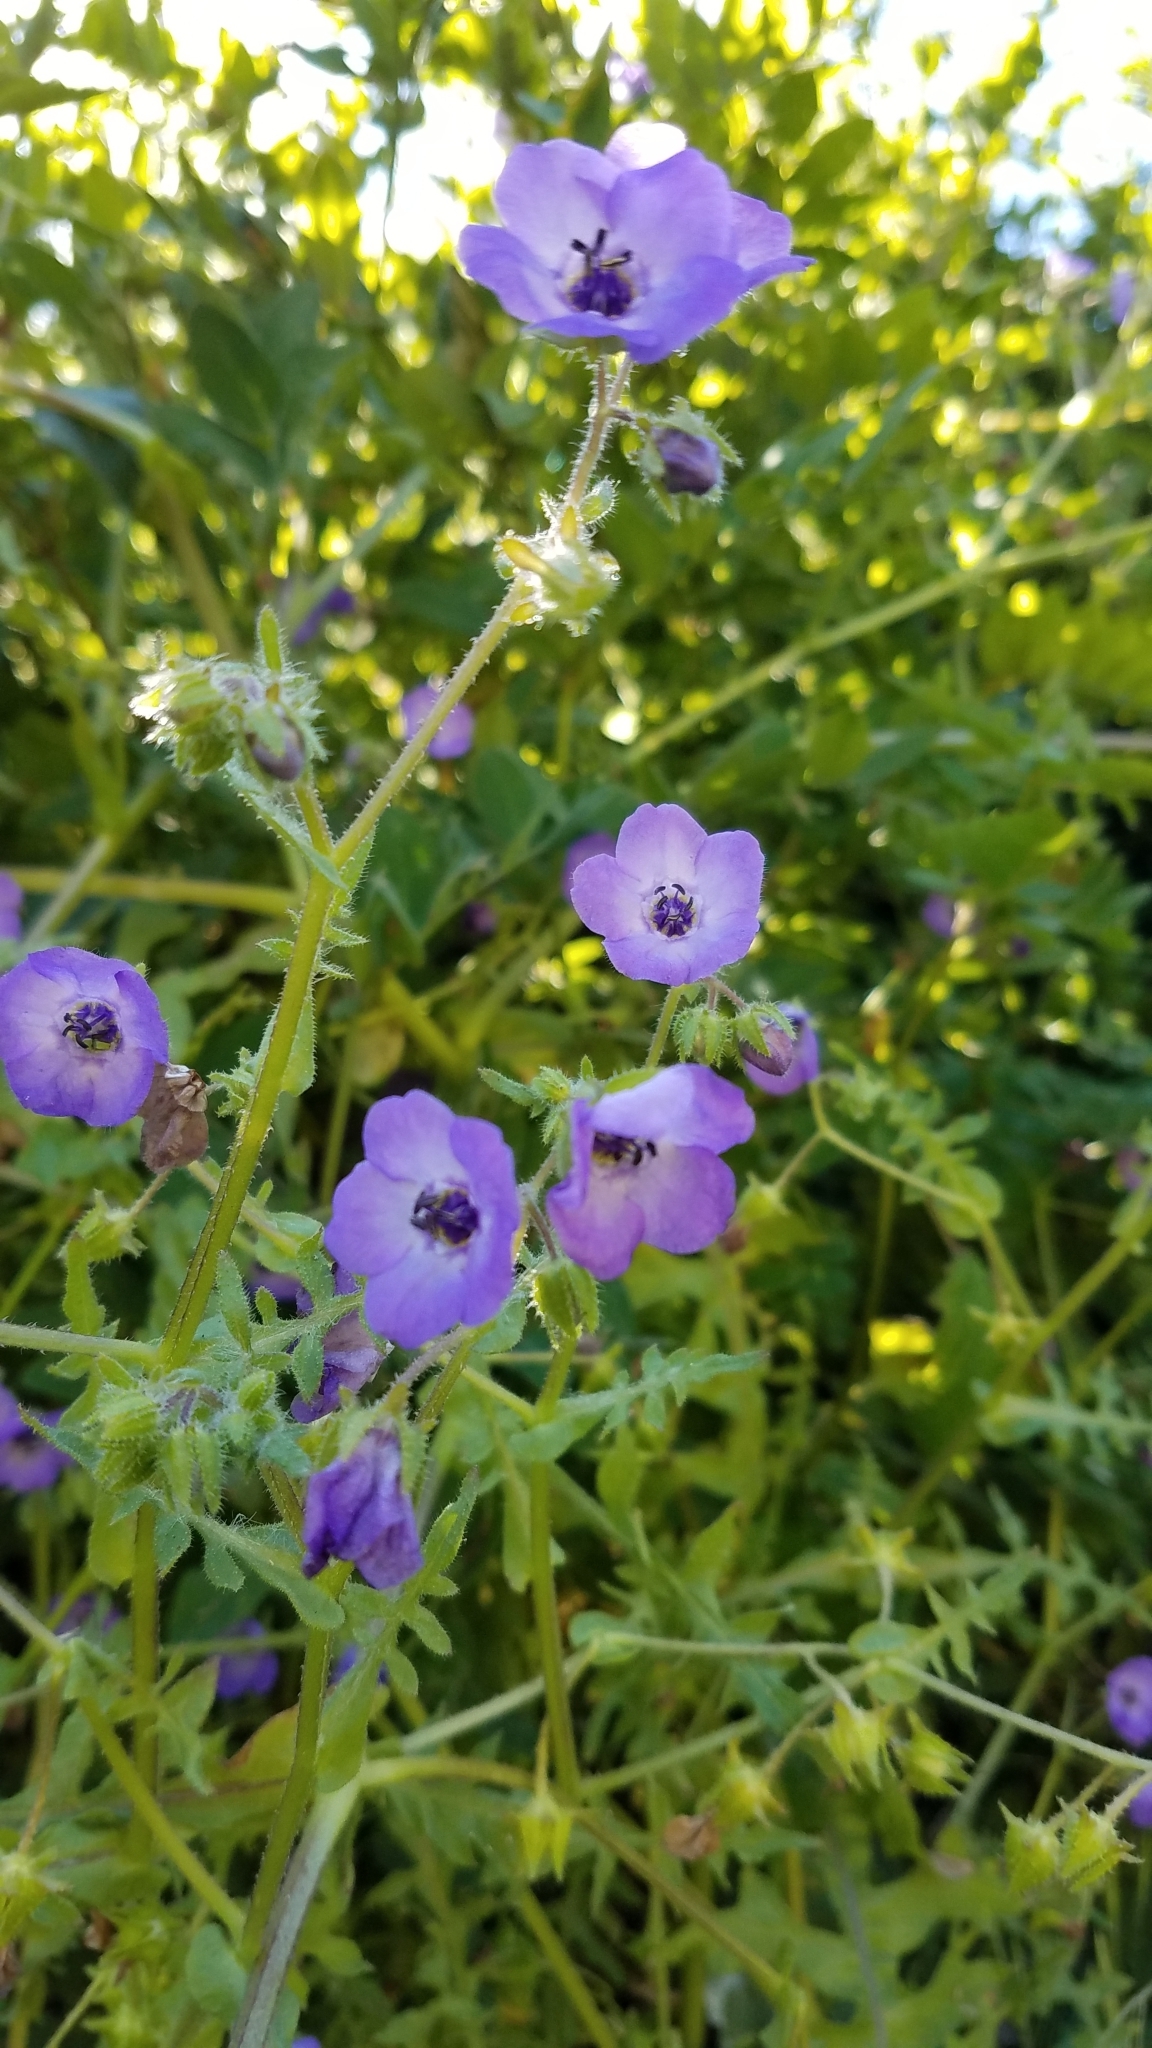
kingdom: Plantae
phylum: Tracheophyta
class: Magnoliopsida
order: Boraginales
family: Hydrophyllaceae
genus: Pholistoma
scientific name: Pholistoma auritum
